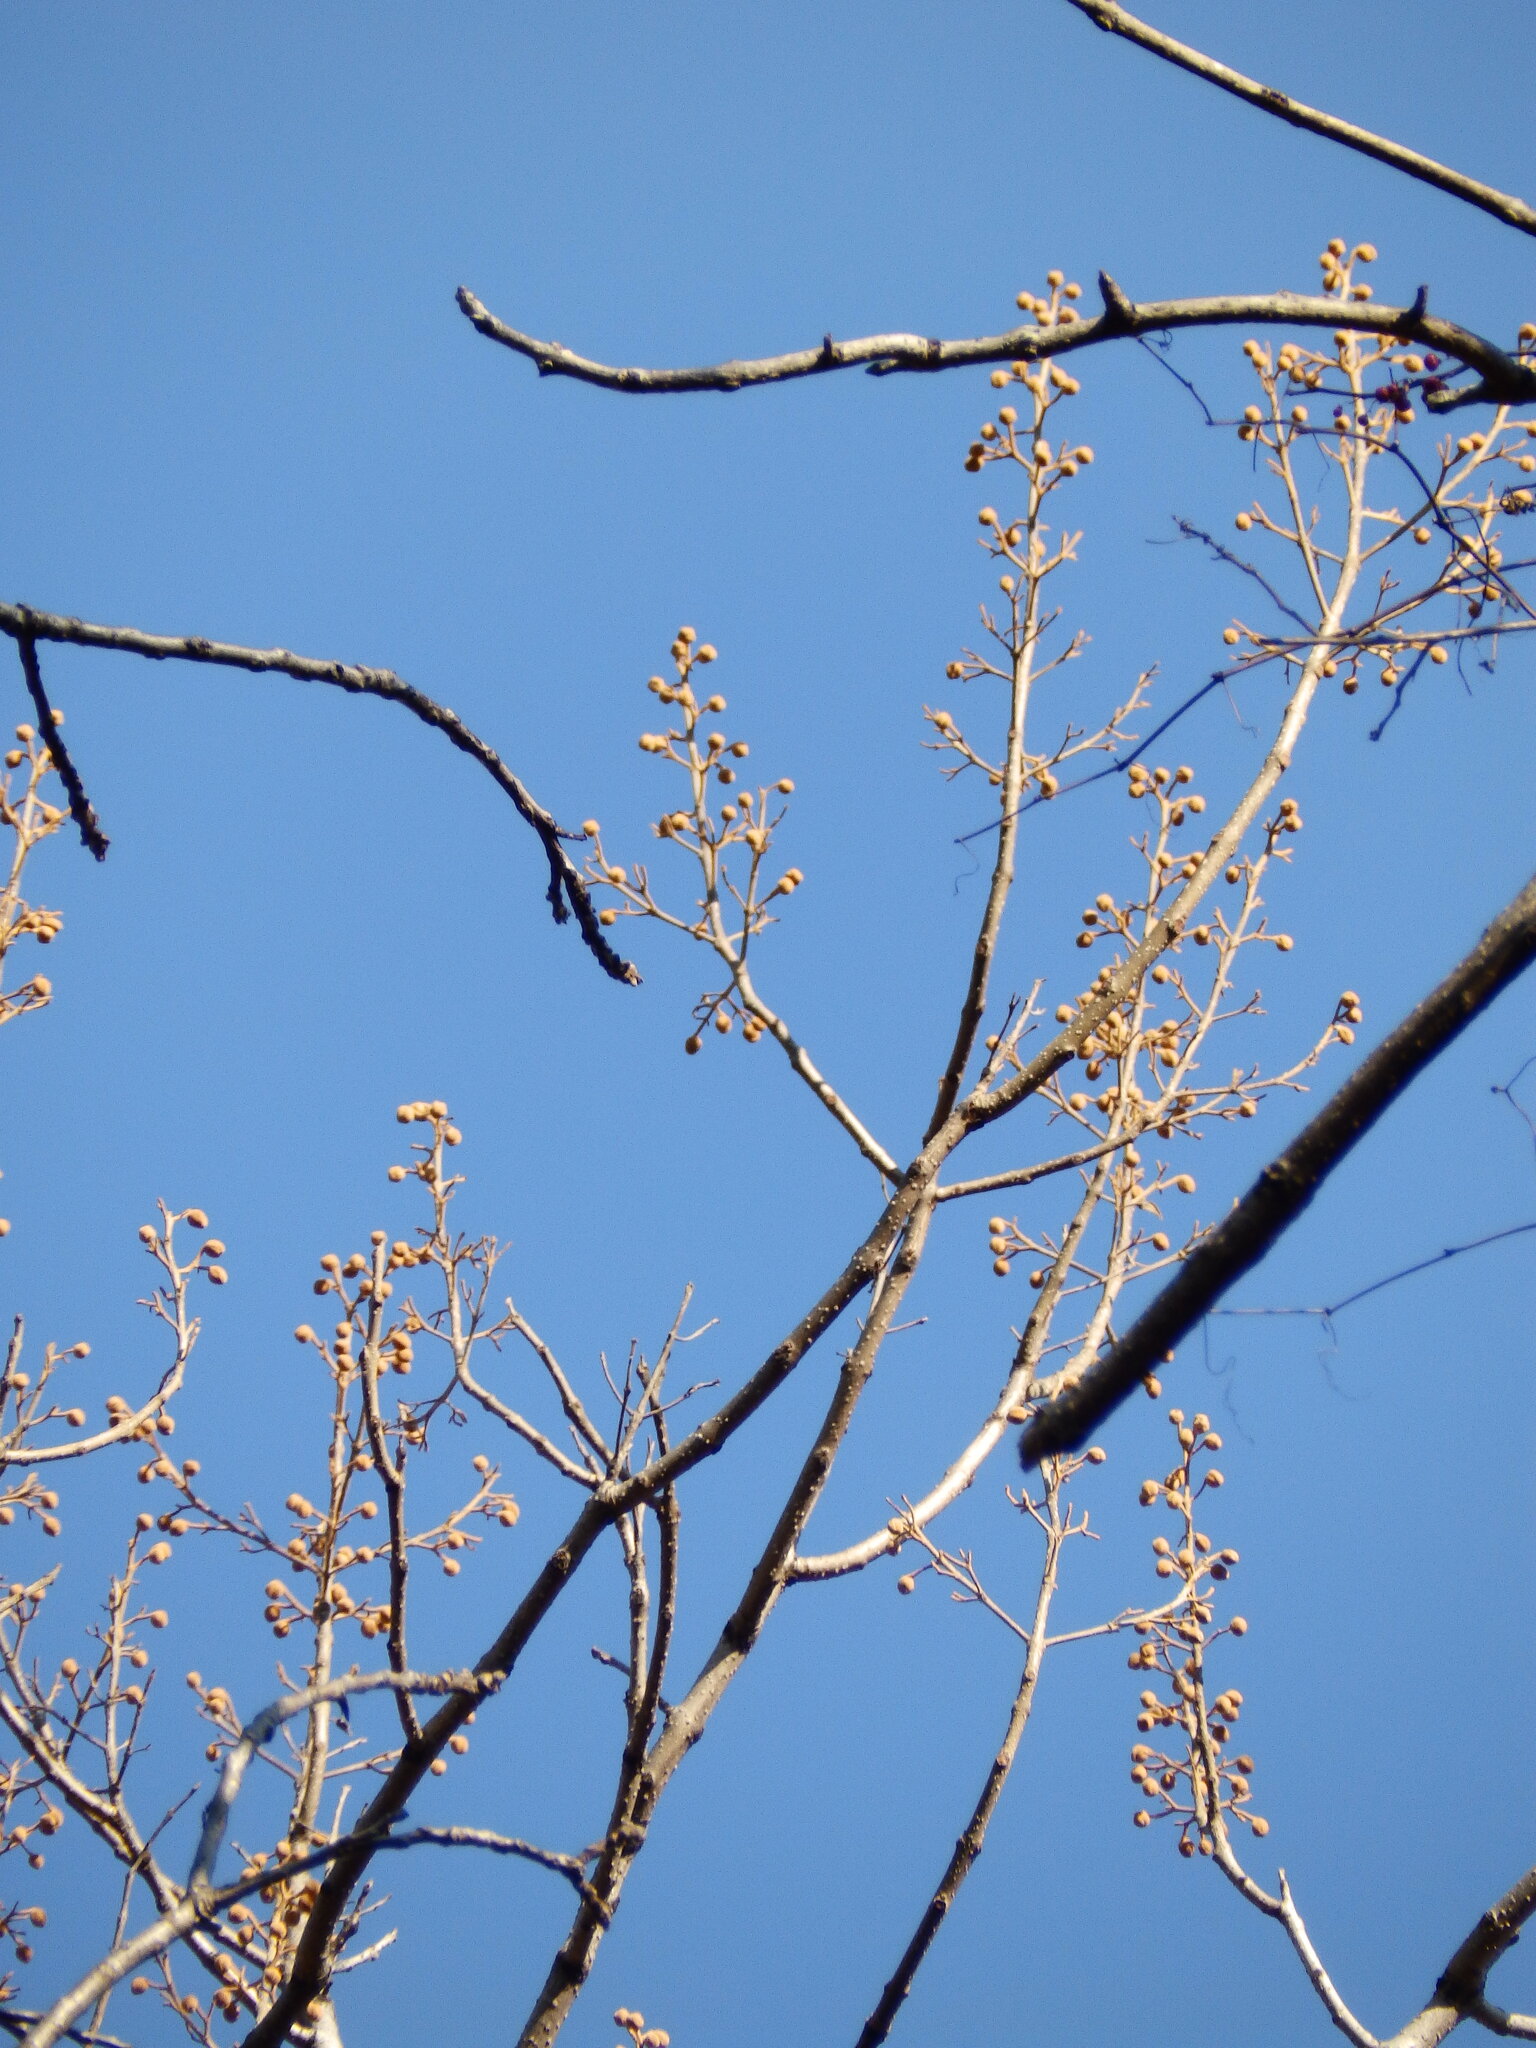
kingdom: Plantae
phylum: Tracheophyta
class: Magnoliopsida
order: Lamiales
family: Paulowniaceae
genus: Paulownia
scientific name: Paulownia tomentosa
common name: Foxglove-tree
